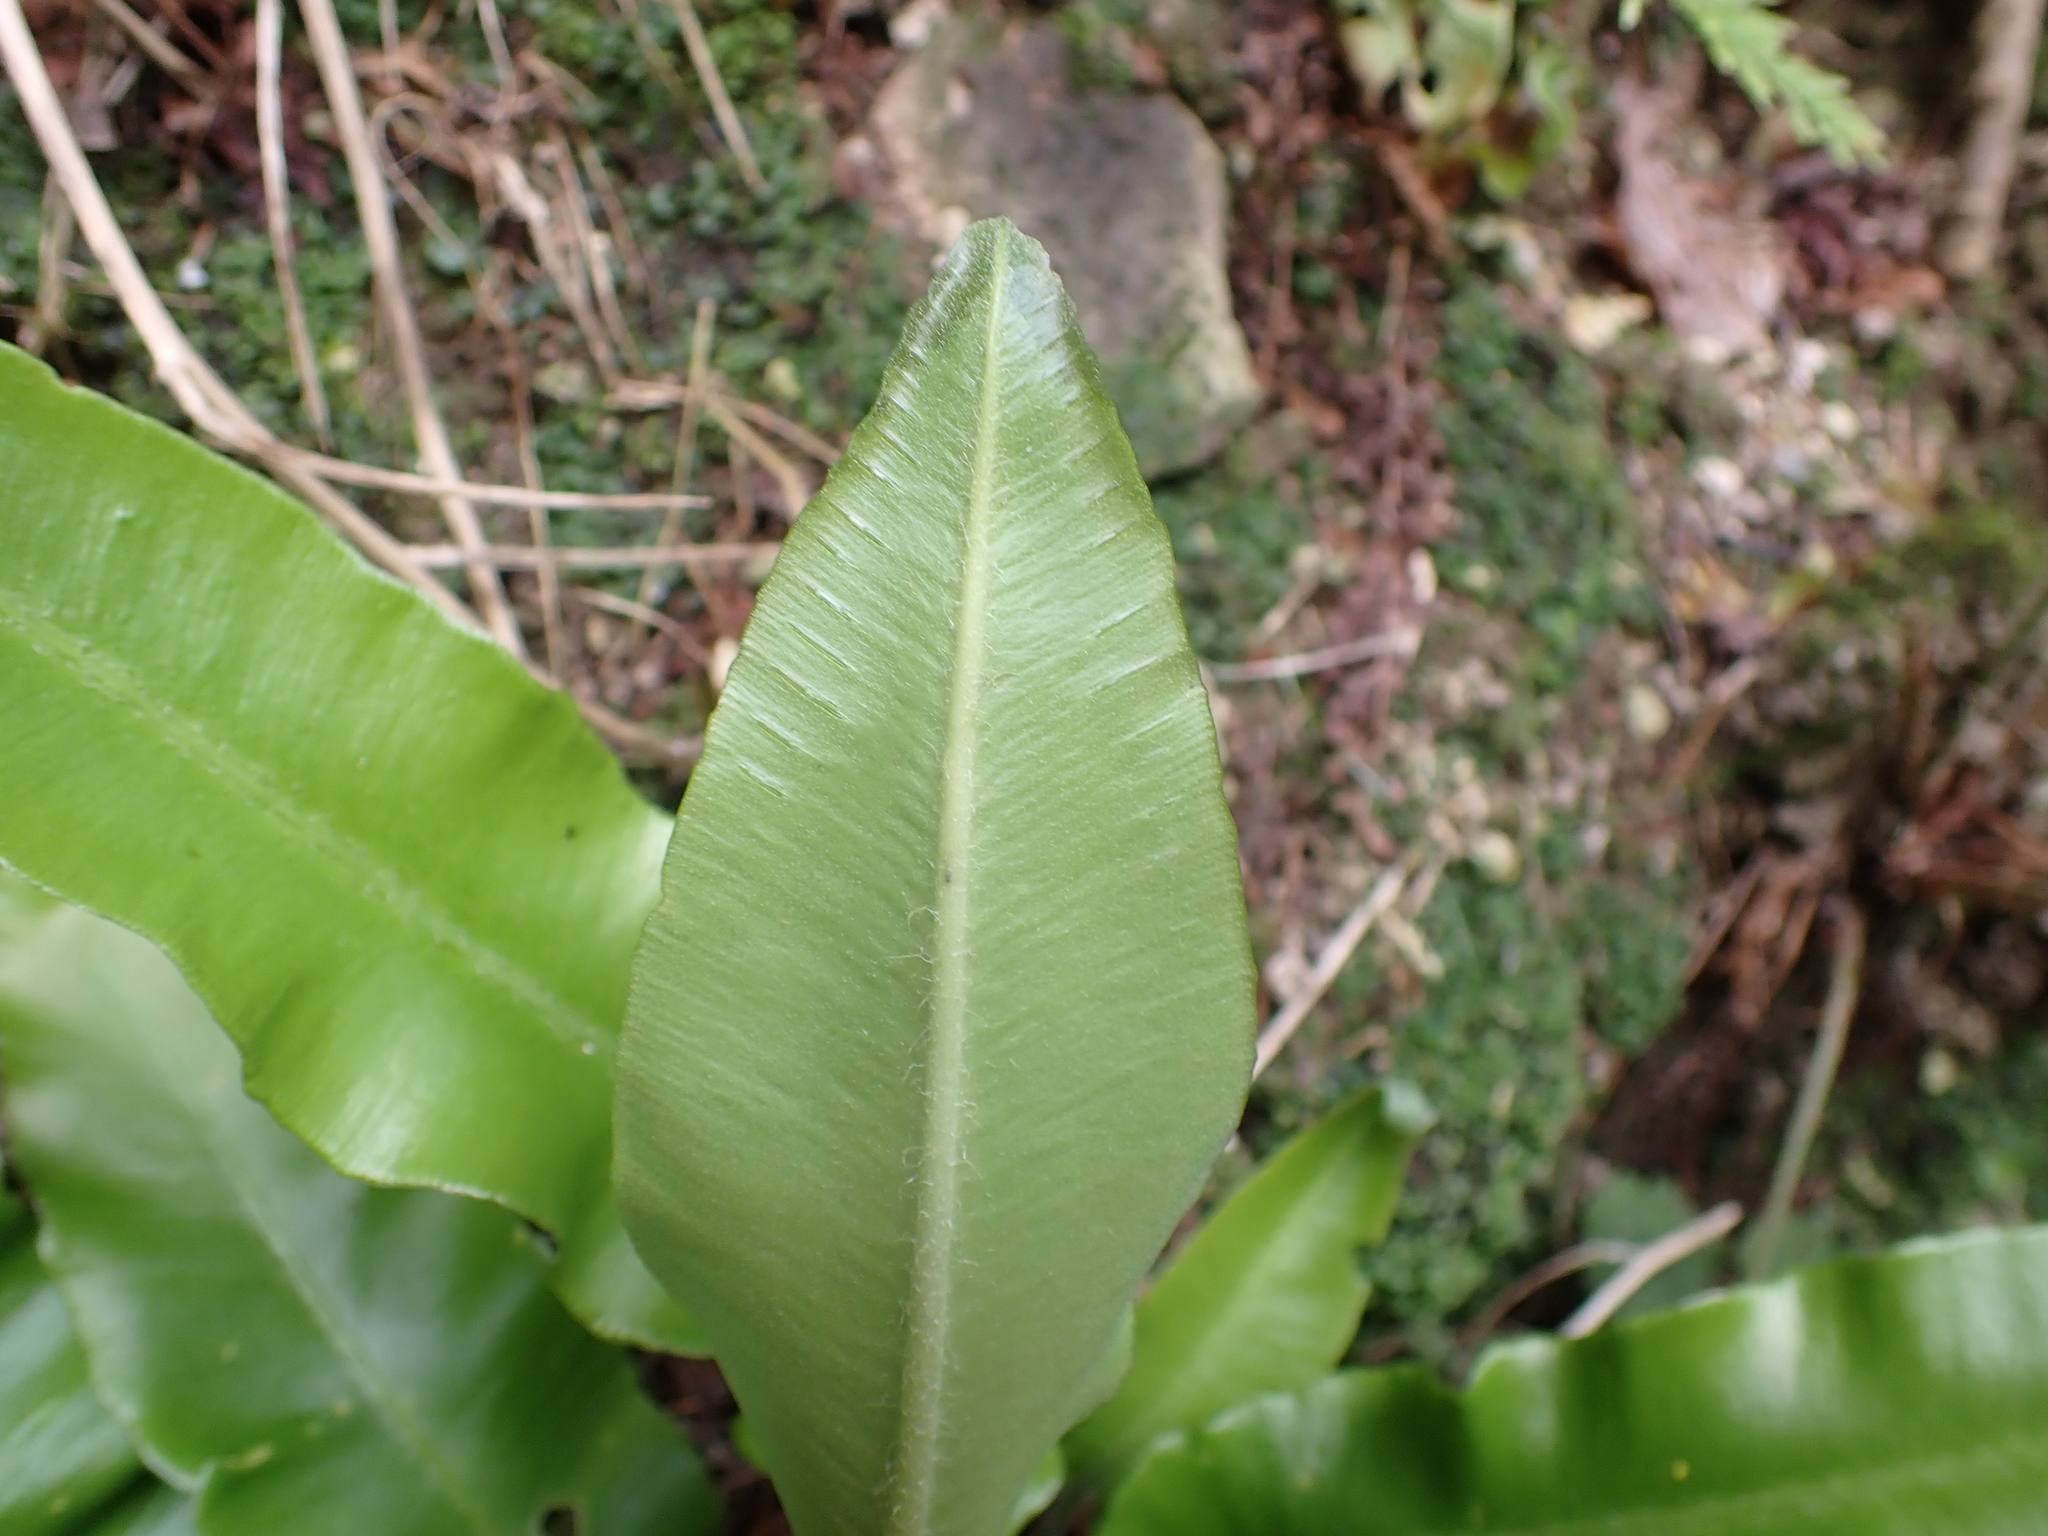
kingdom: Plantae
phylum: Tracheophyta
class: Polypodiopsida
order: Polypodiales
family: Aspleniaceae
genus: Asplenium
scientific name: Asplenium scolopendrium
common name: Hart's-tongue fern
